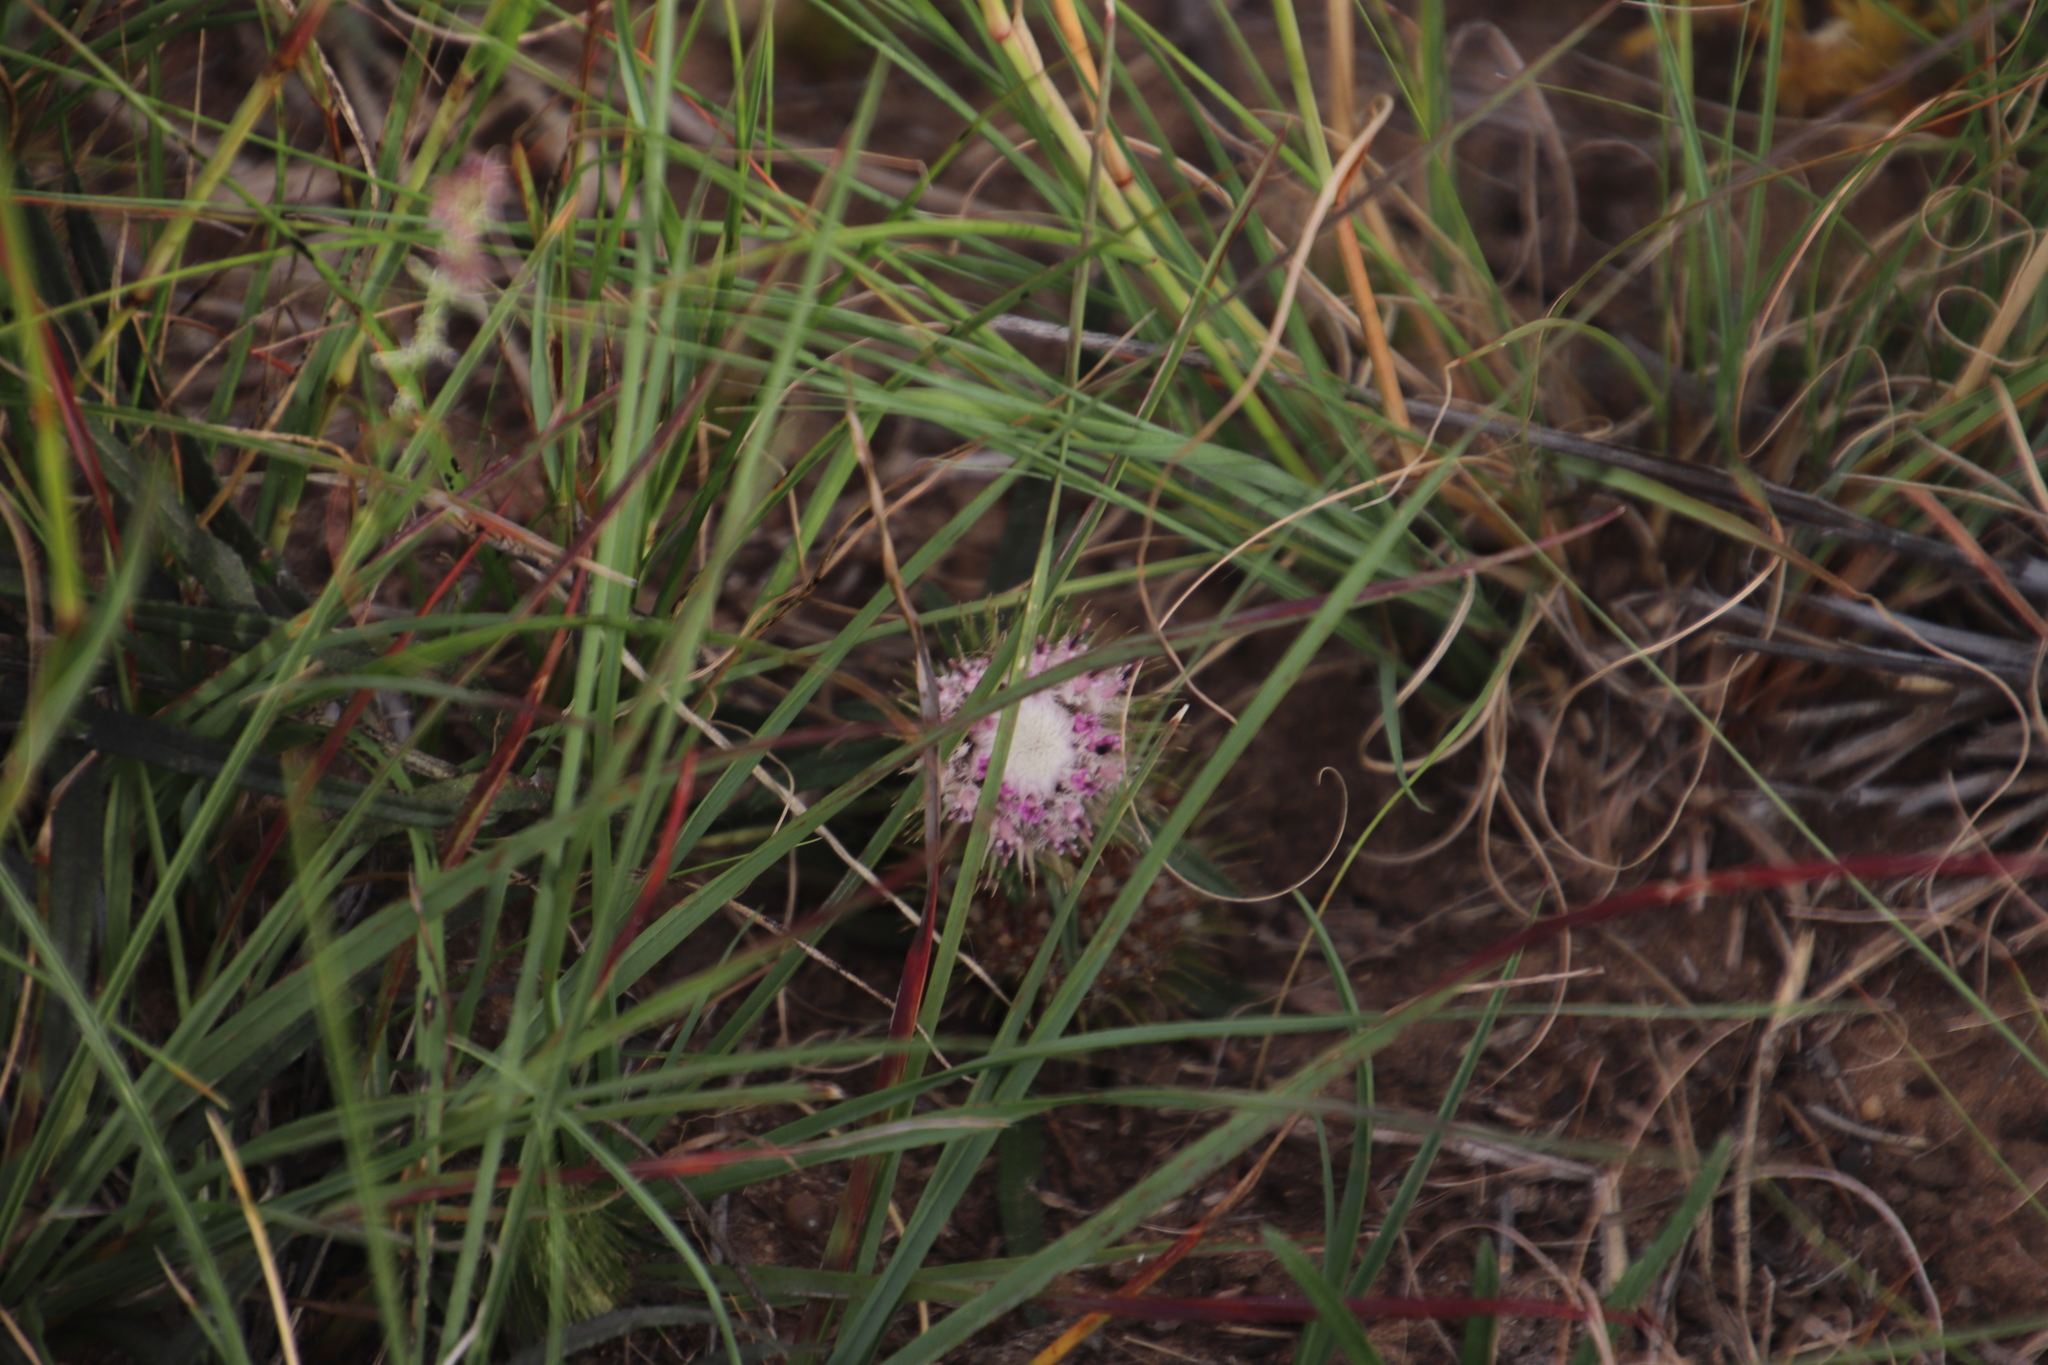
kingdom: Plantae
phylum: Tracheophyta
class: Magnoliopsida
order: Asterales
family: Asteraceae
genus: Dicoma
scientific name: Dicoma anomala
